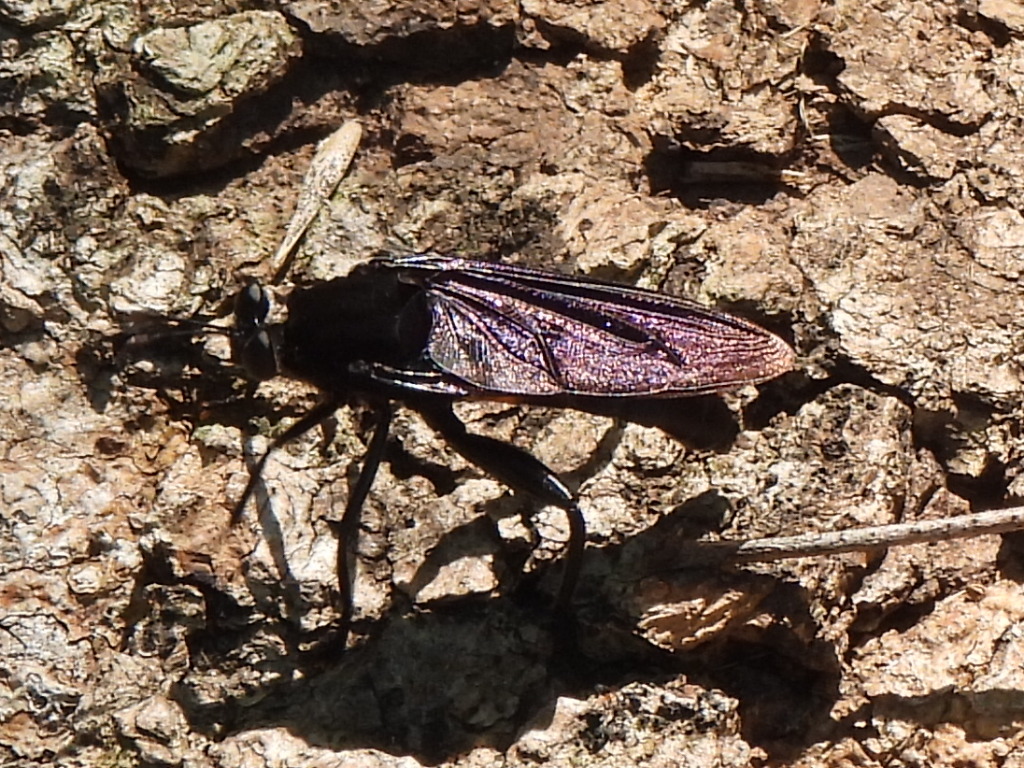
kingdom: Animalia
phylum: Arthropoda
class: Insecta
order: Diptera
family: Mydidae
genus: Mydas
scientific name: Mydas clavatus
